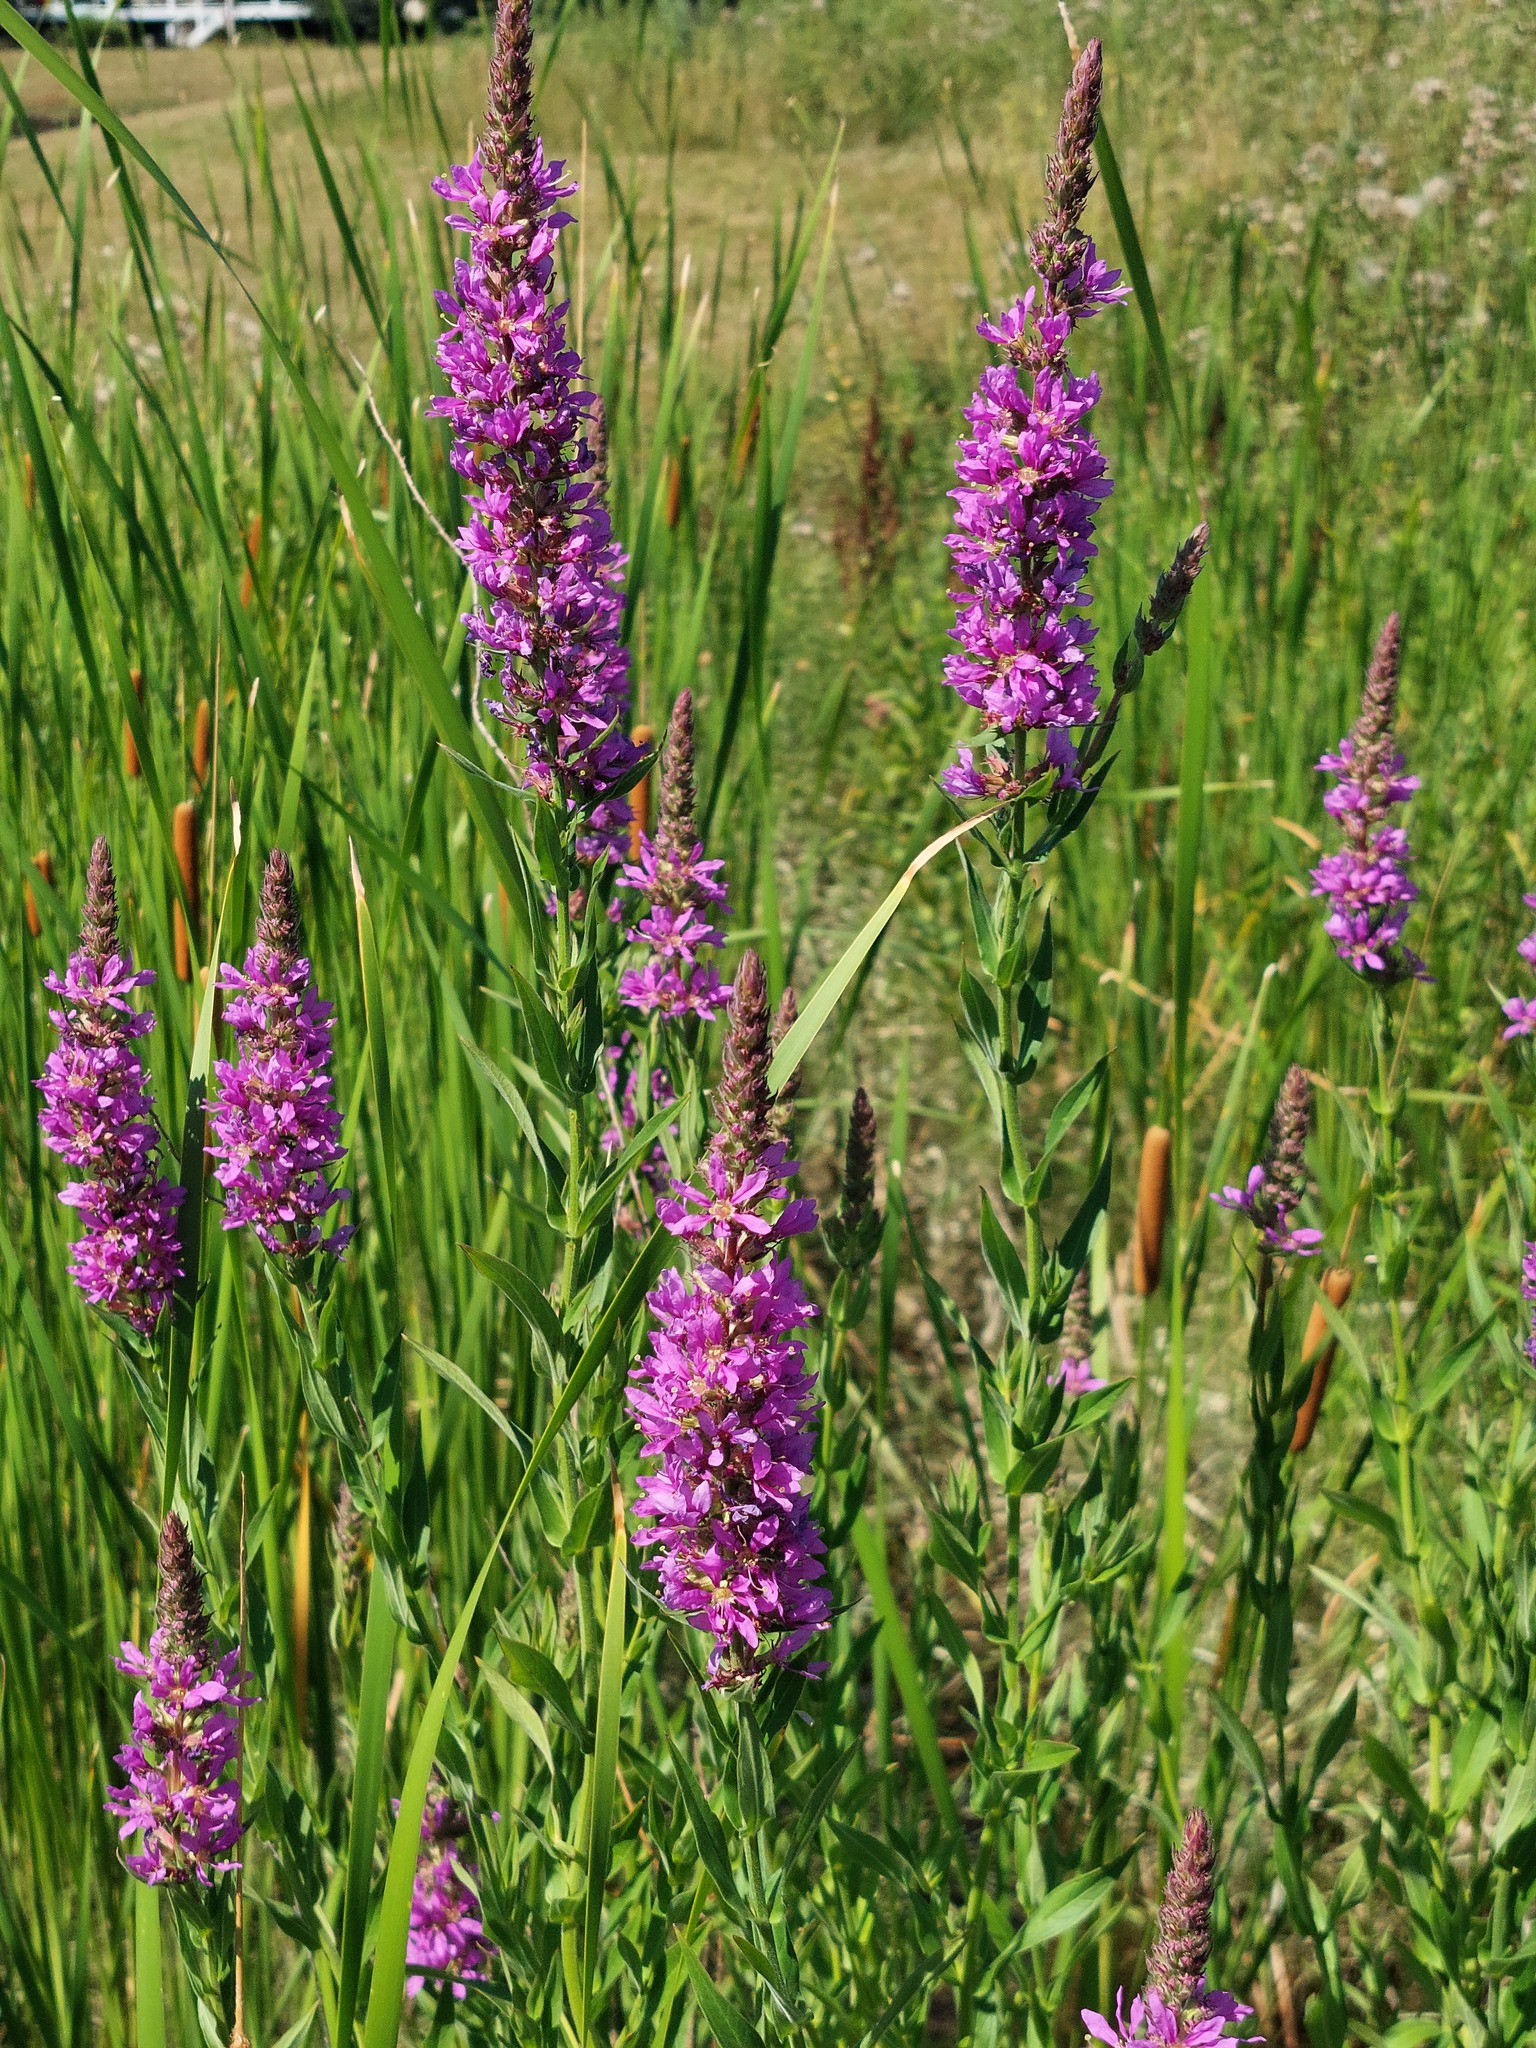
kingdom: Plantae
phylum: Tracheophyta
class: Magnoliopsida
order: Myrtales
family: Lythraceae
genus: Lythrum
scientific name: Lythrum salicaria
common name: Purple loosestrife
